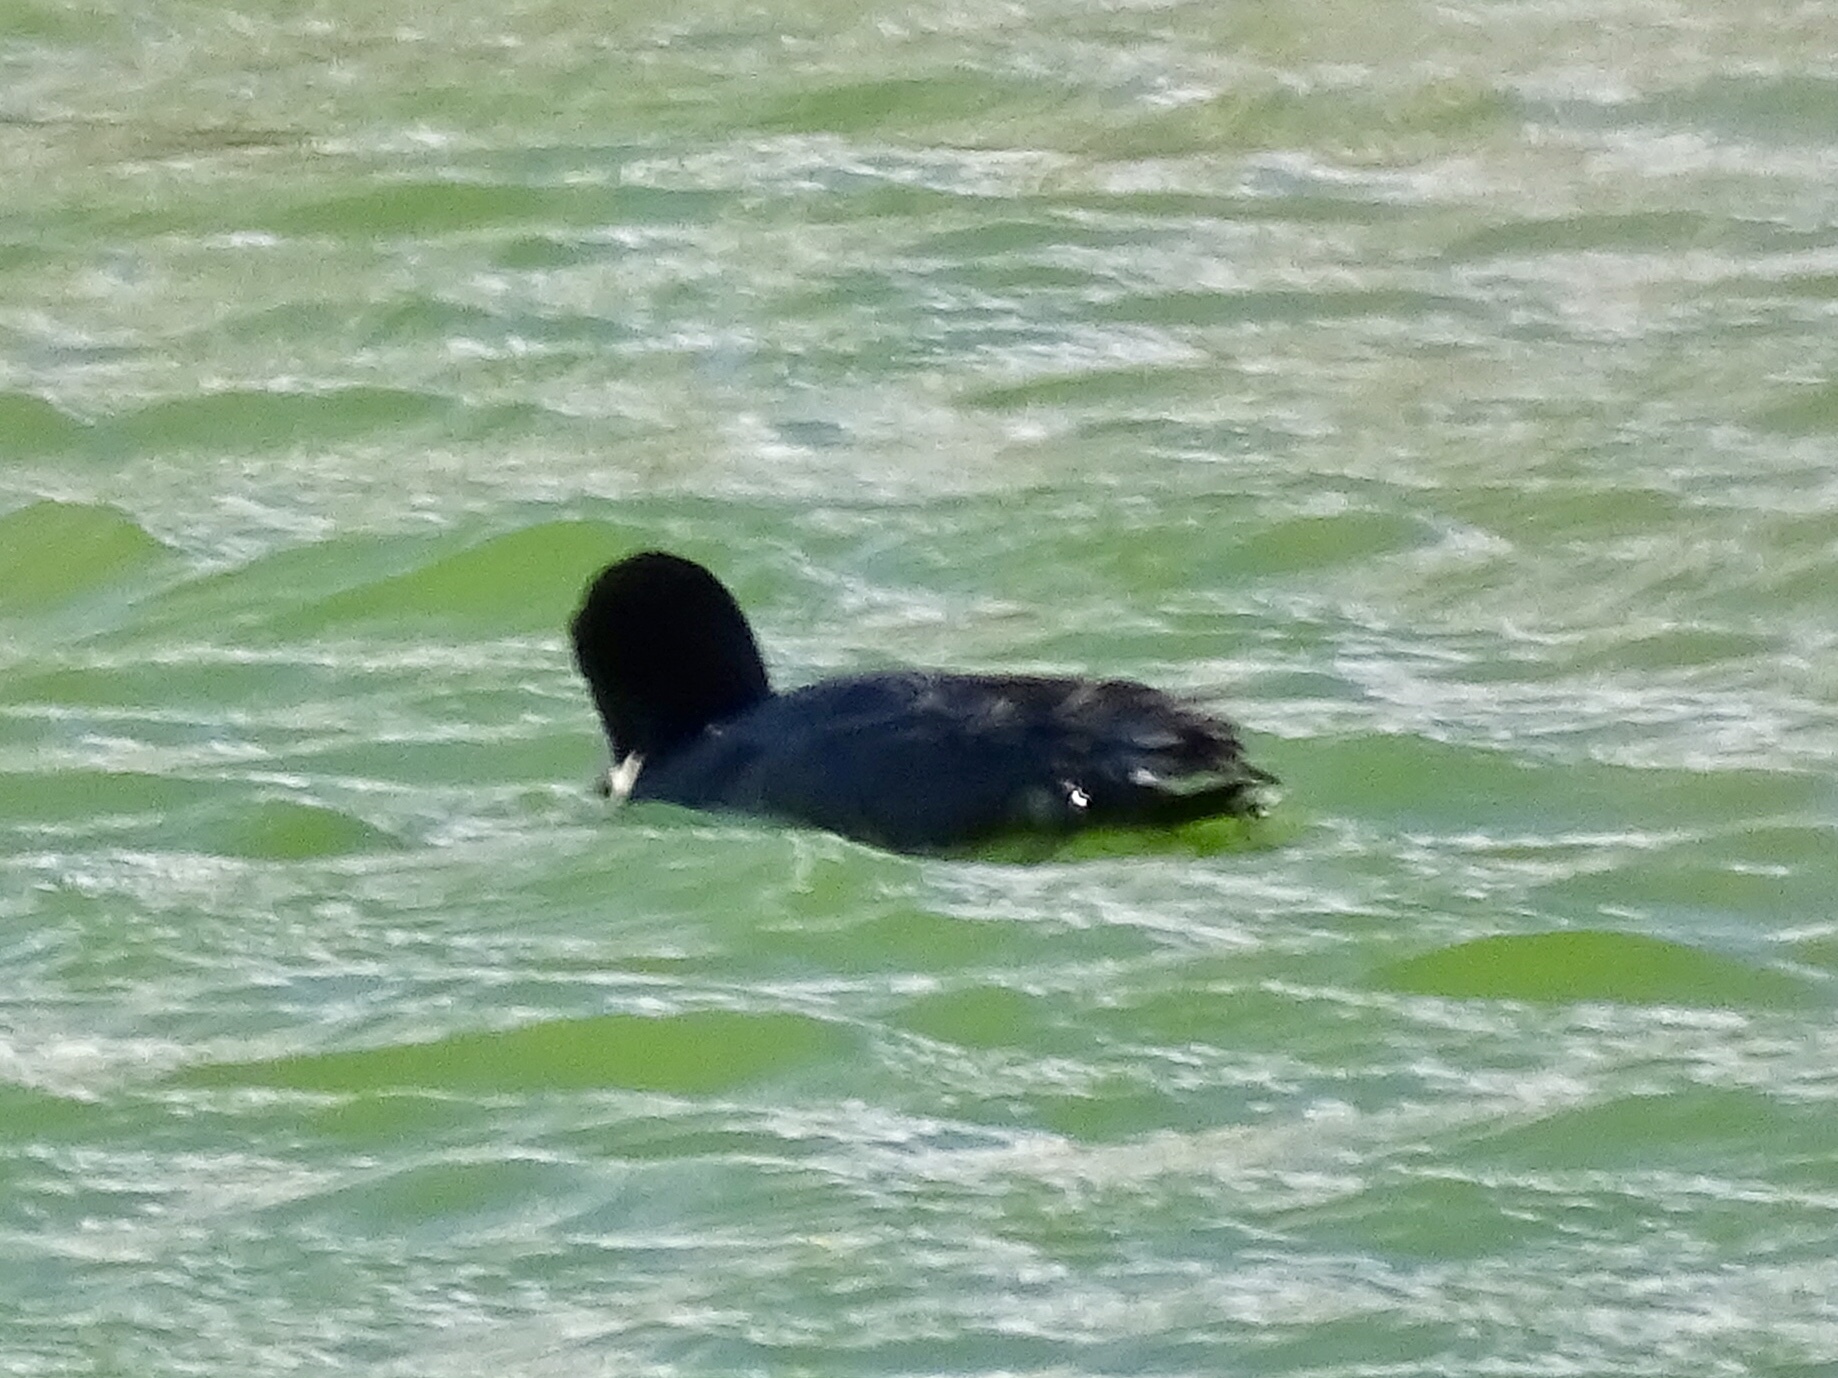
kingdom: Animalia
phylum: Chordata
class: Aves
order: Gruiformes
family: Rallidae
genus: Fulica
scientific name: Fulica americana
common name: American coot
